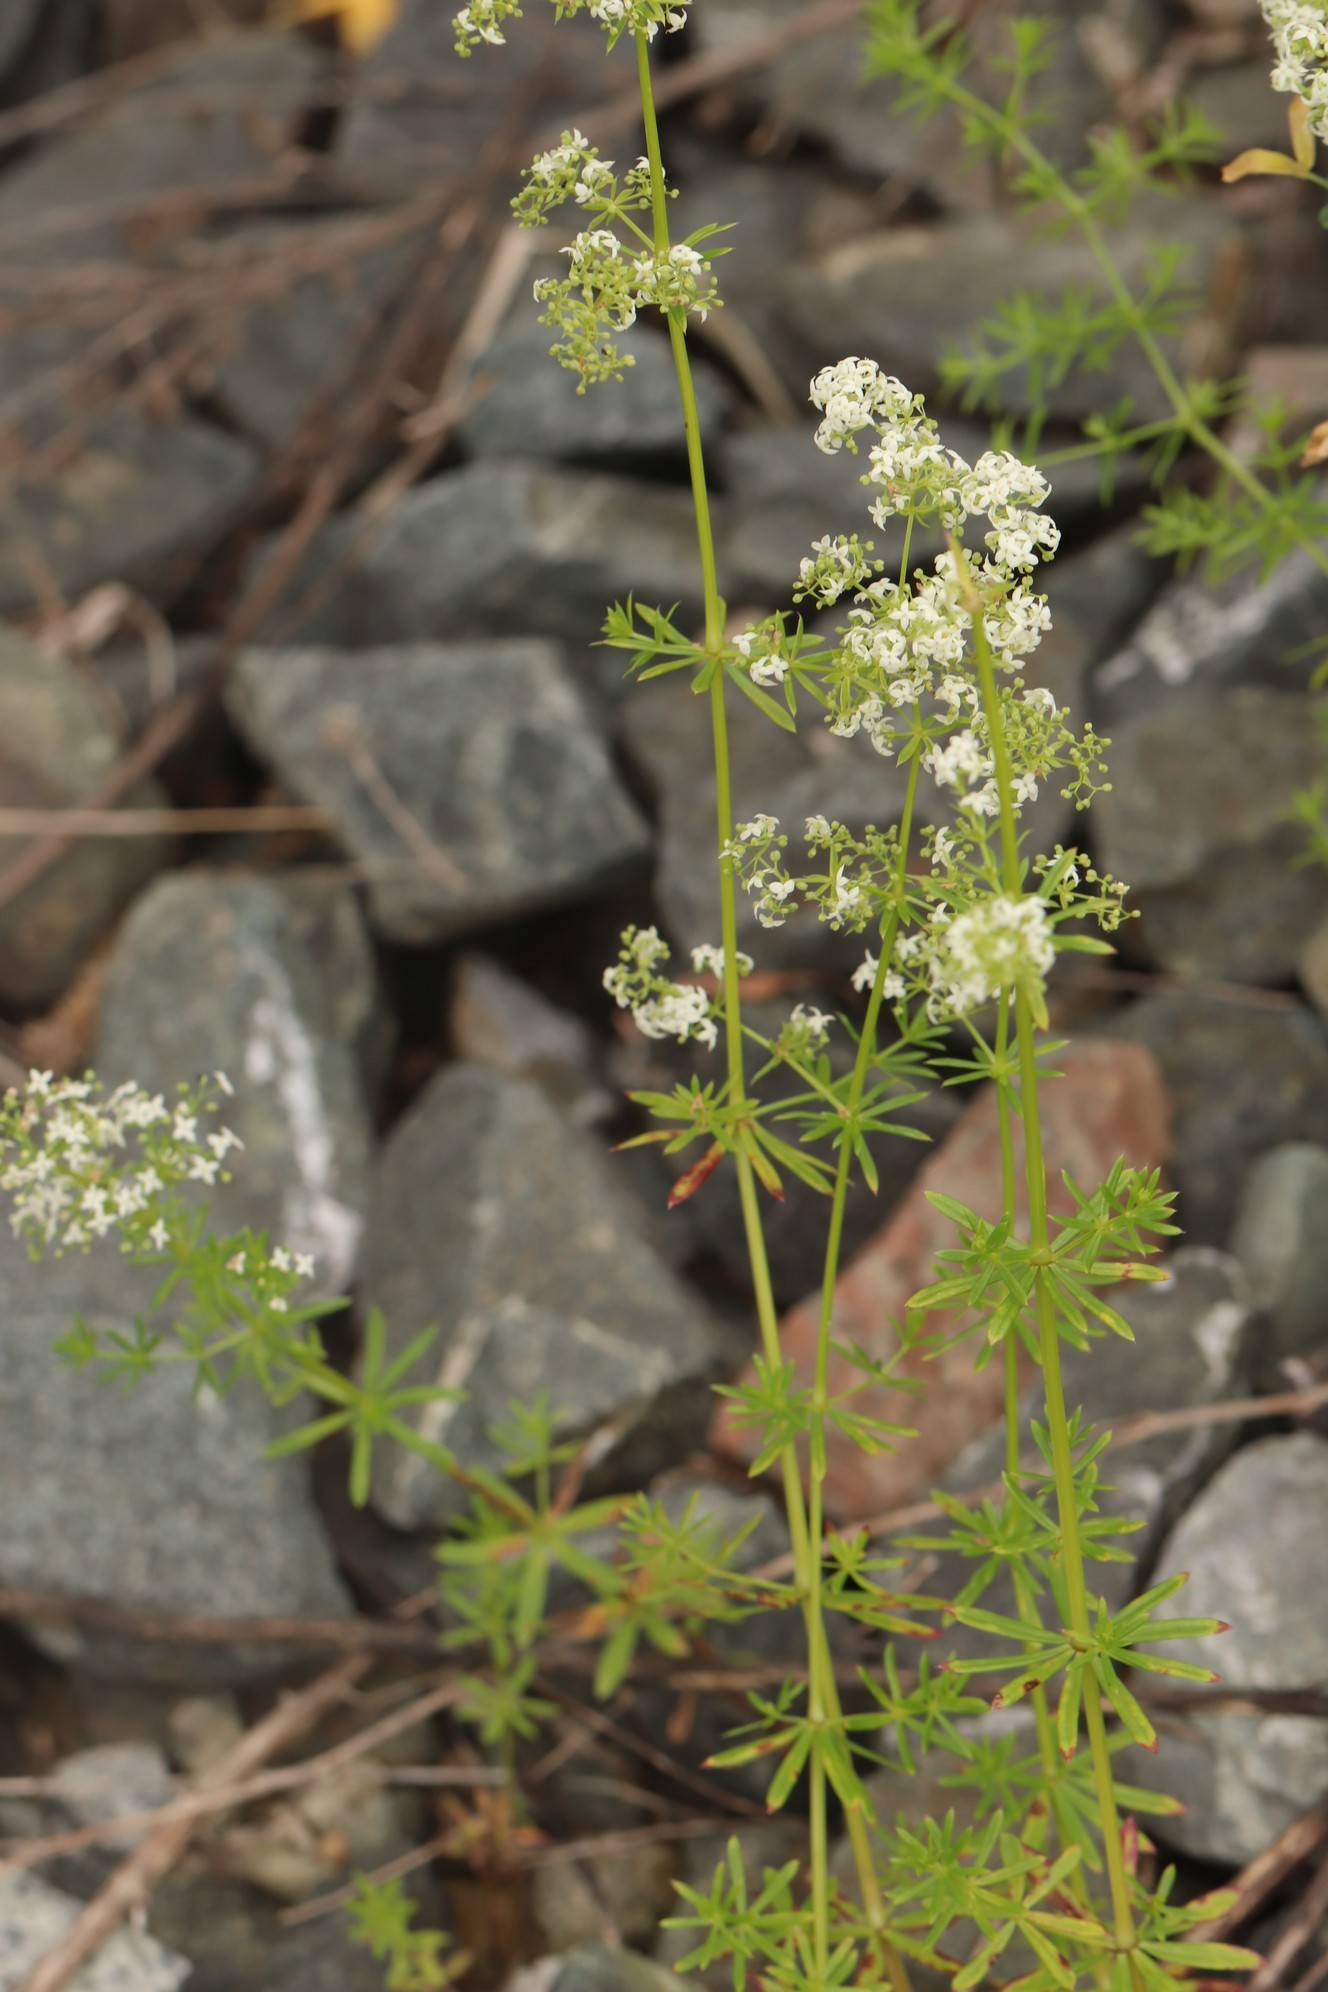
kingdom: Plantae
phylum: Tracheophyta
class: Magnoliopsida
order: Gentianales
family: Rubiaceae
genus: Galium
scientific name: Galium mollugo
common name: Hedge bedstraw
